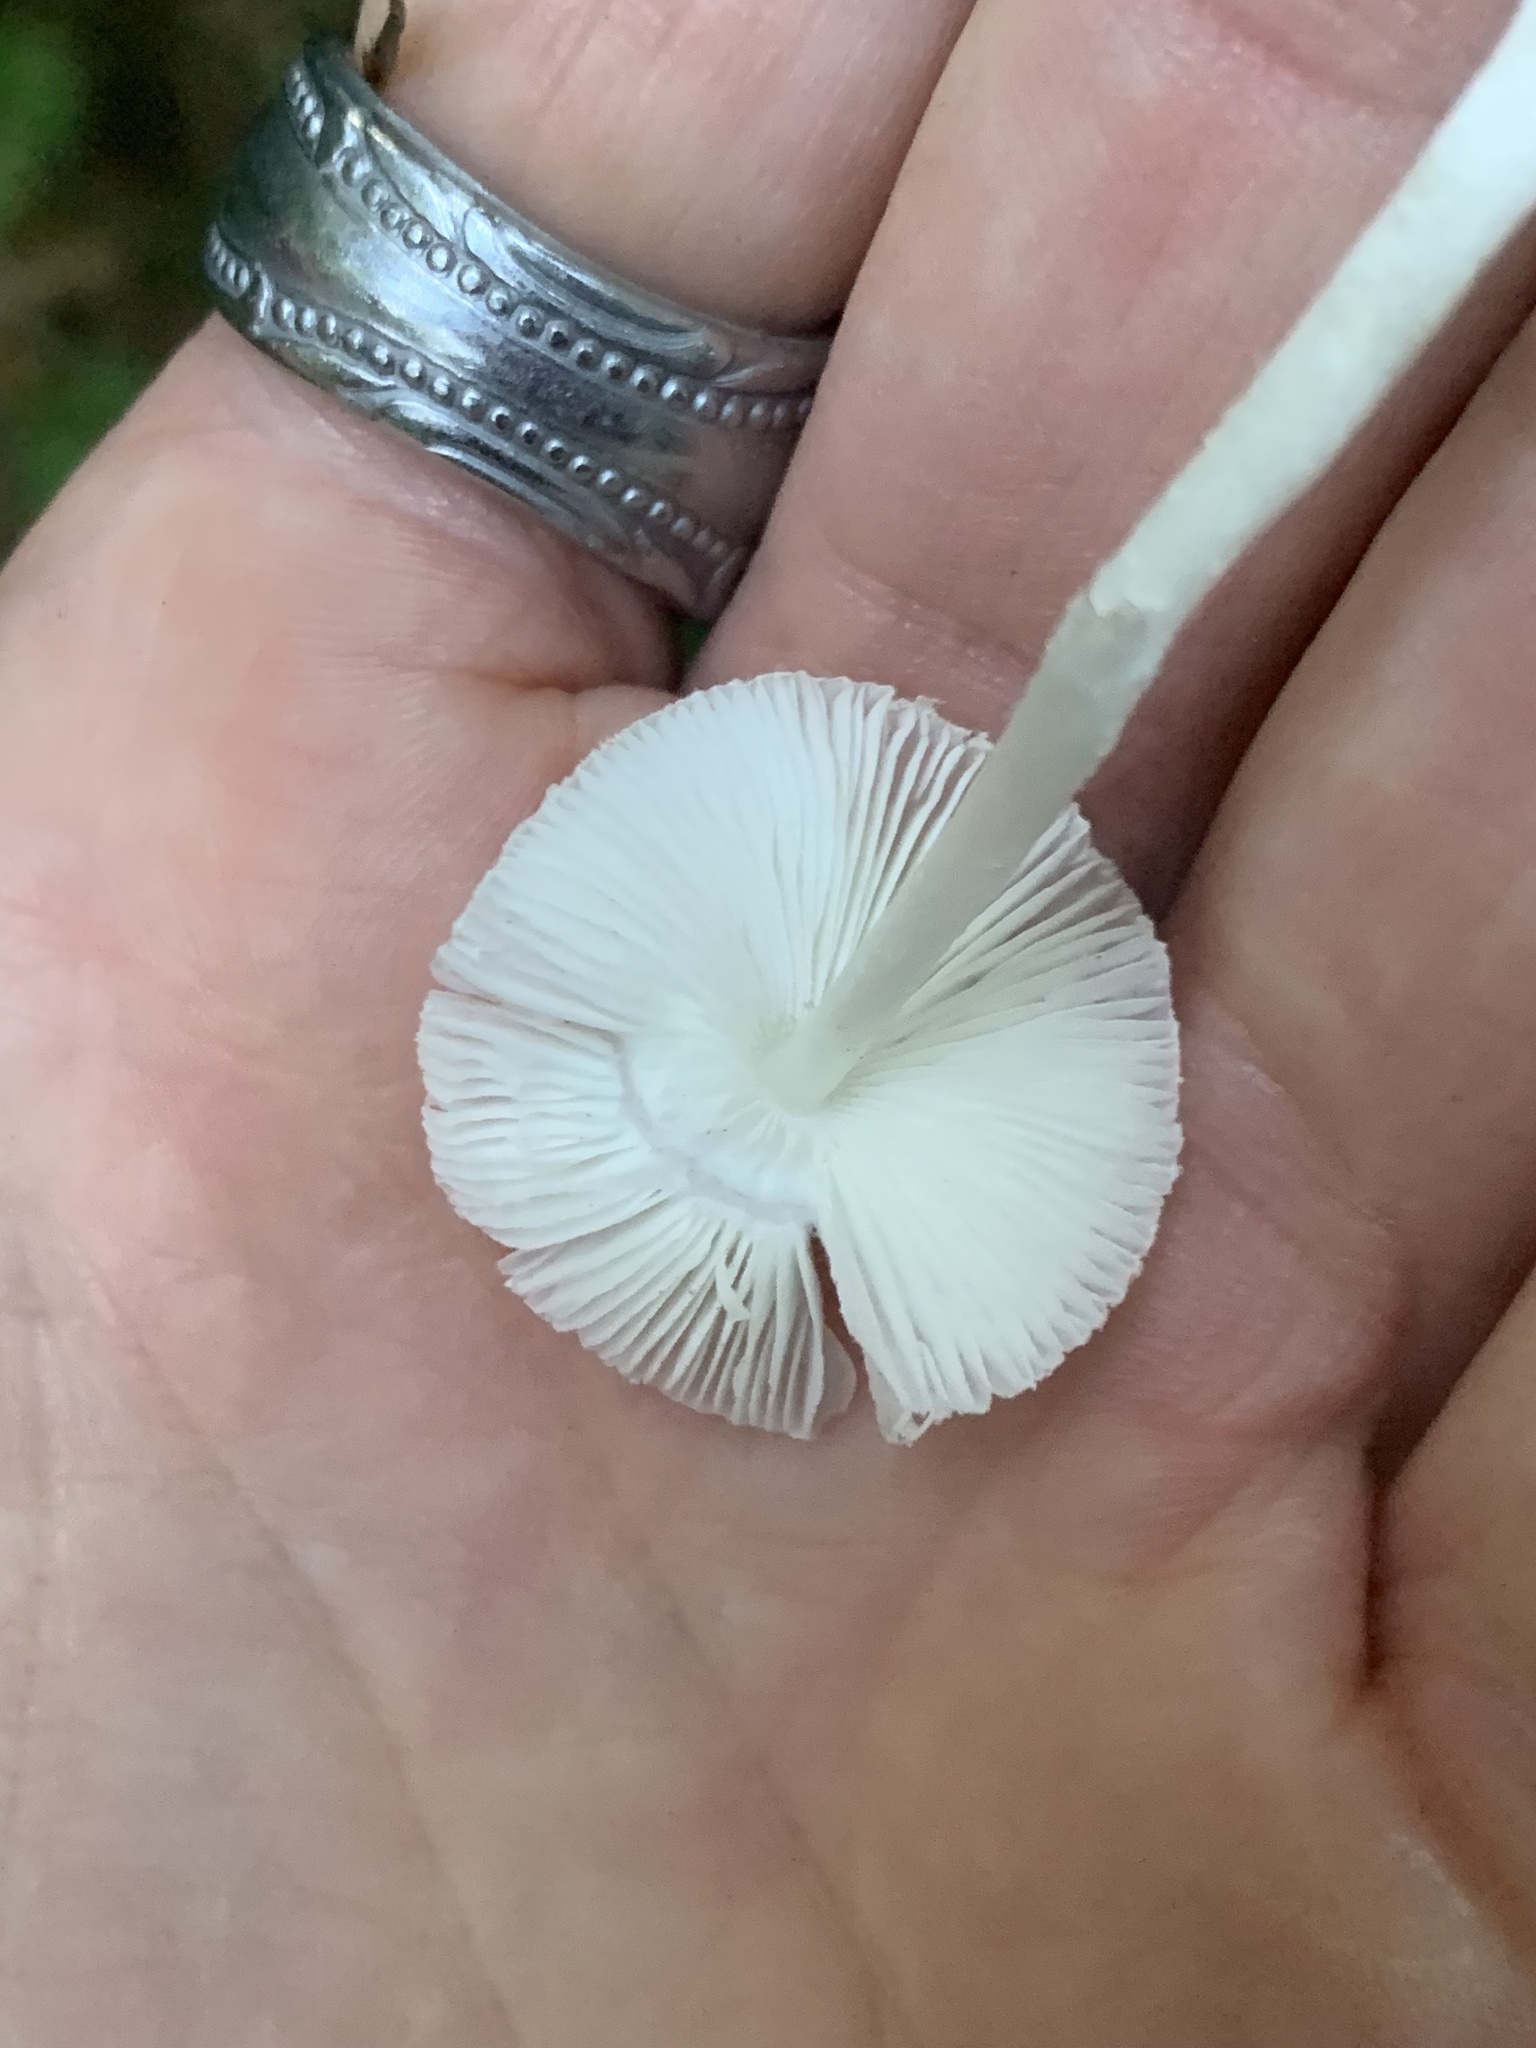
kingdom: Fungi
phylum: Basidiomycota
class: Agaricomycetes
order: Agaricales
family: Agaricaceae
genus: Leucocoprinus
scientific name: Leucocoprinus brebissonii
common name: Skullcap dapperling
